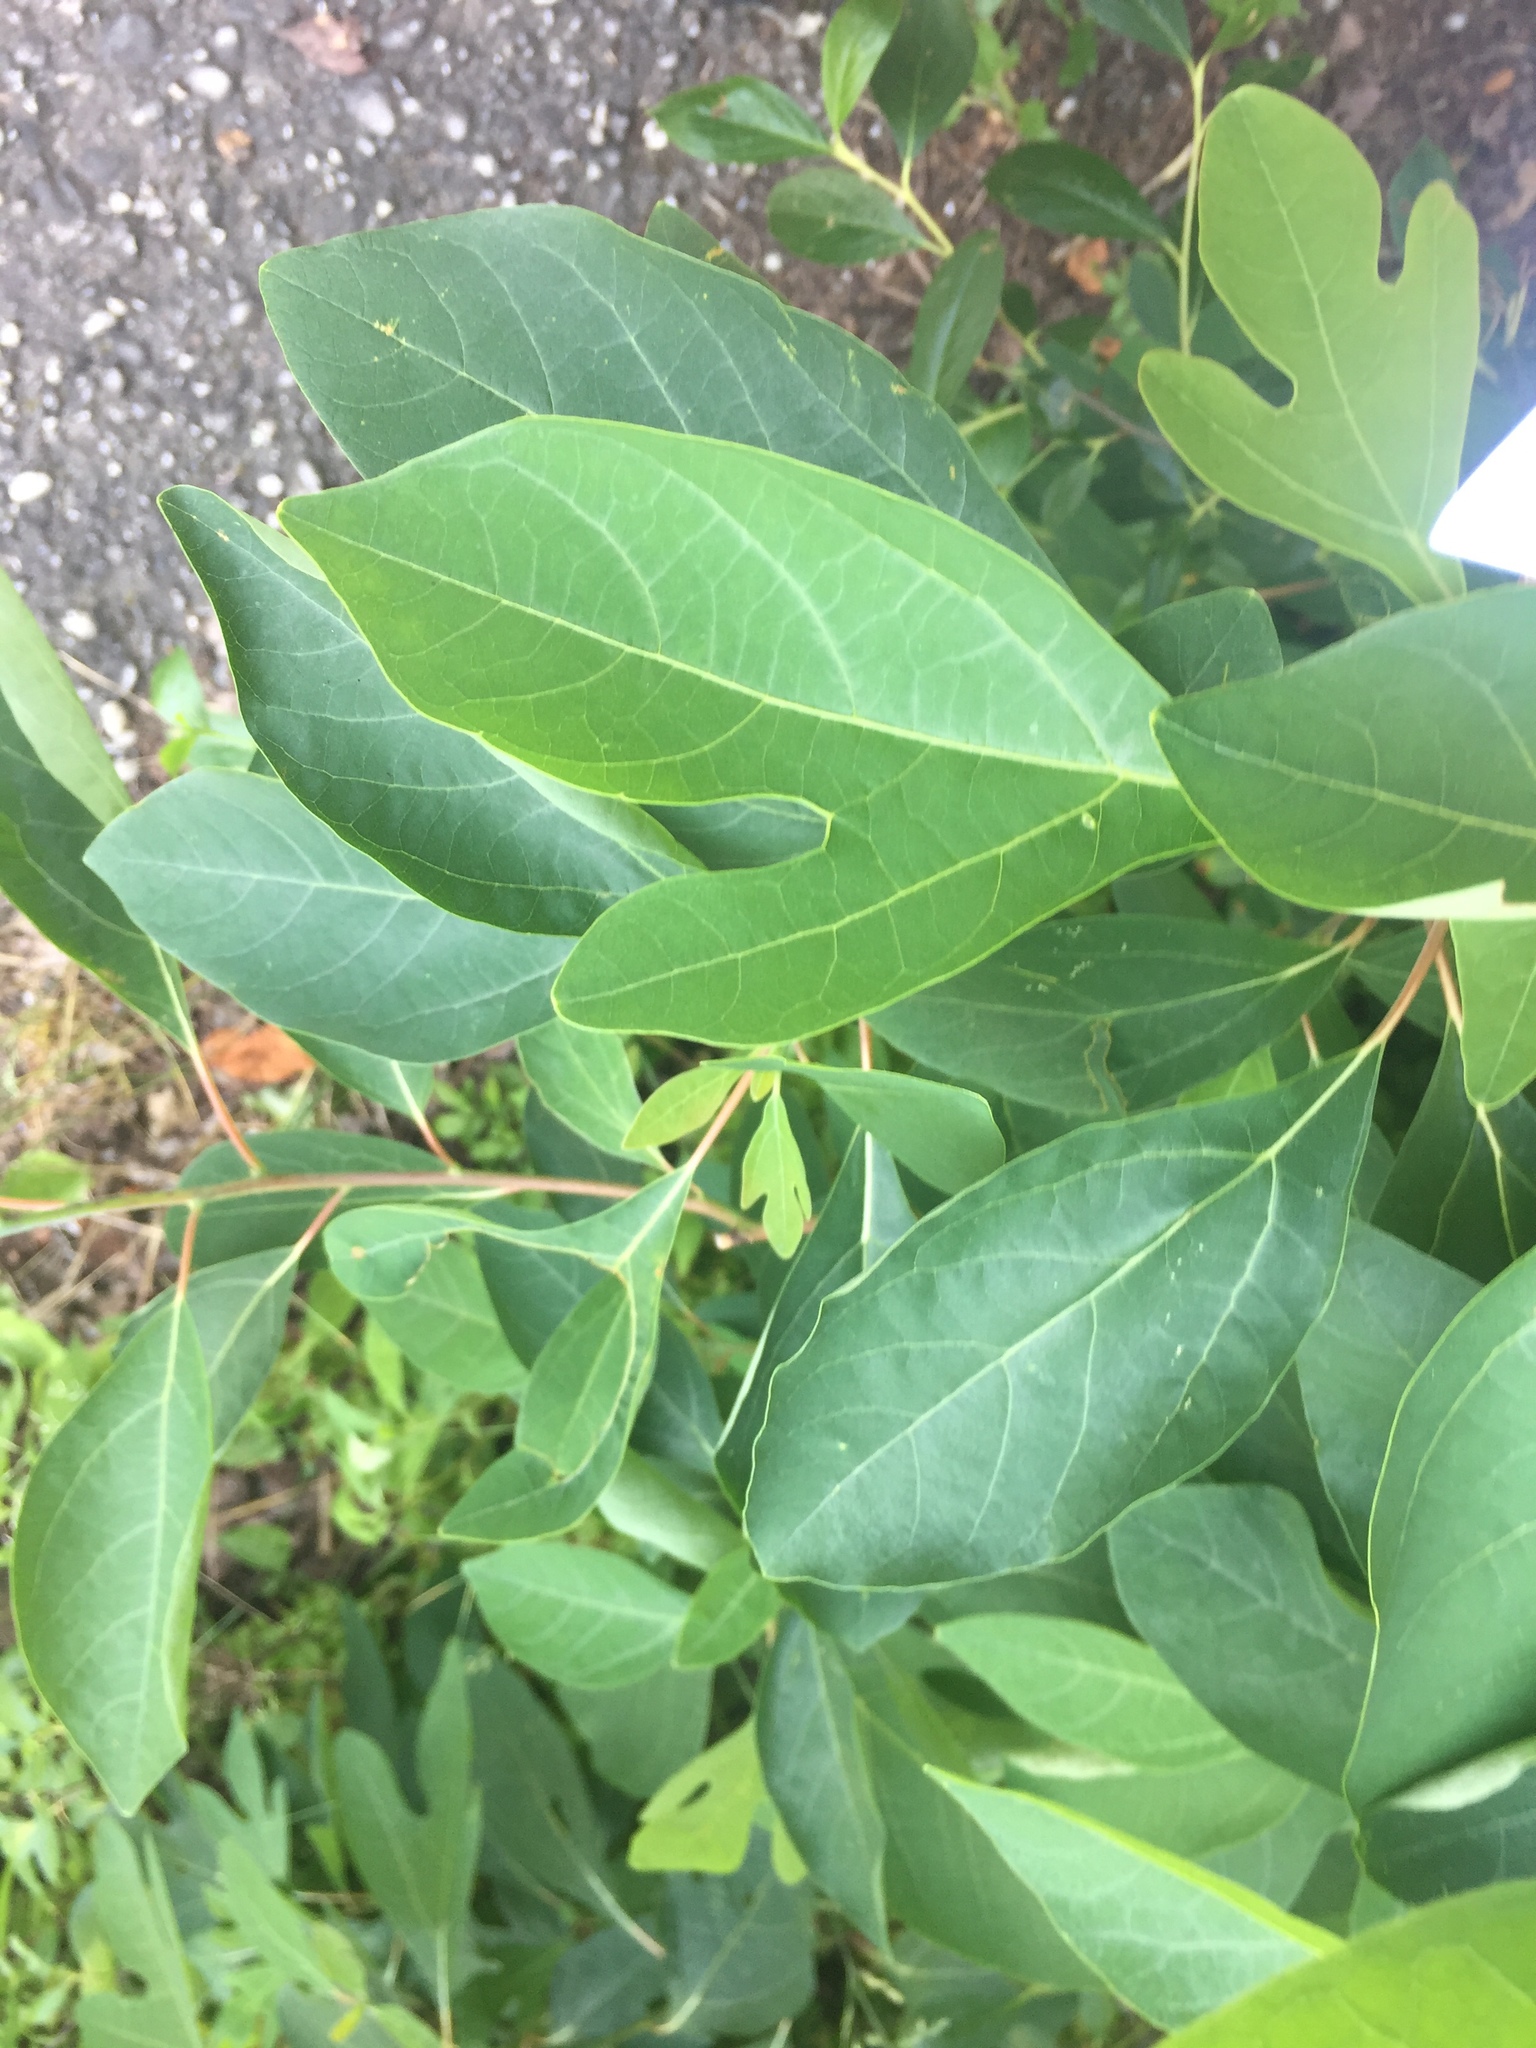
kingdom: Plantae
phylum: Tracheophyta
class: Magnoliopsida
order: Laurales
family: Lauraceae
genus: Sassafras
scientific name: Sassafras albidum
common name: Sassafras
